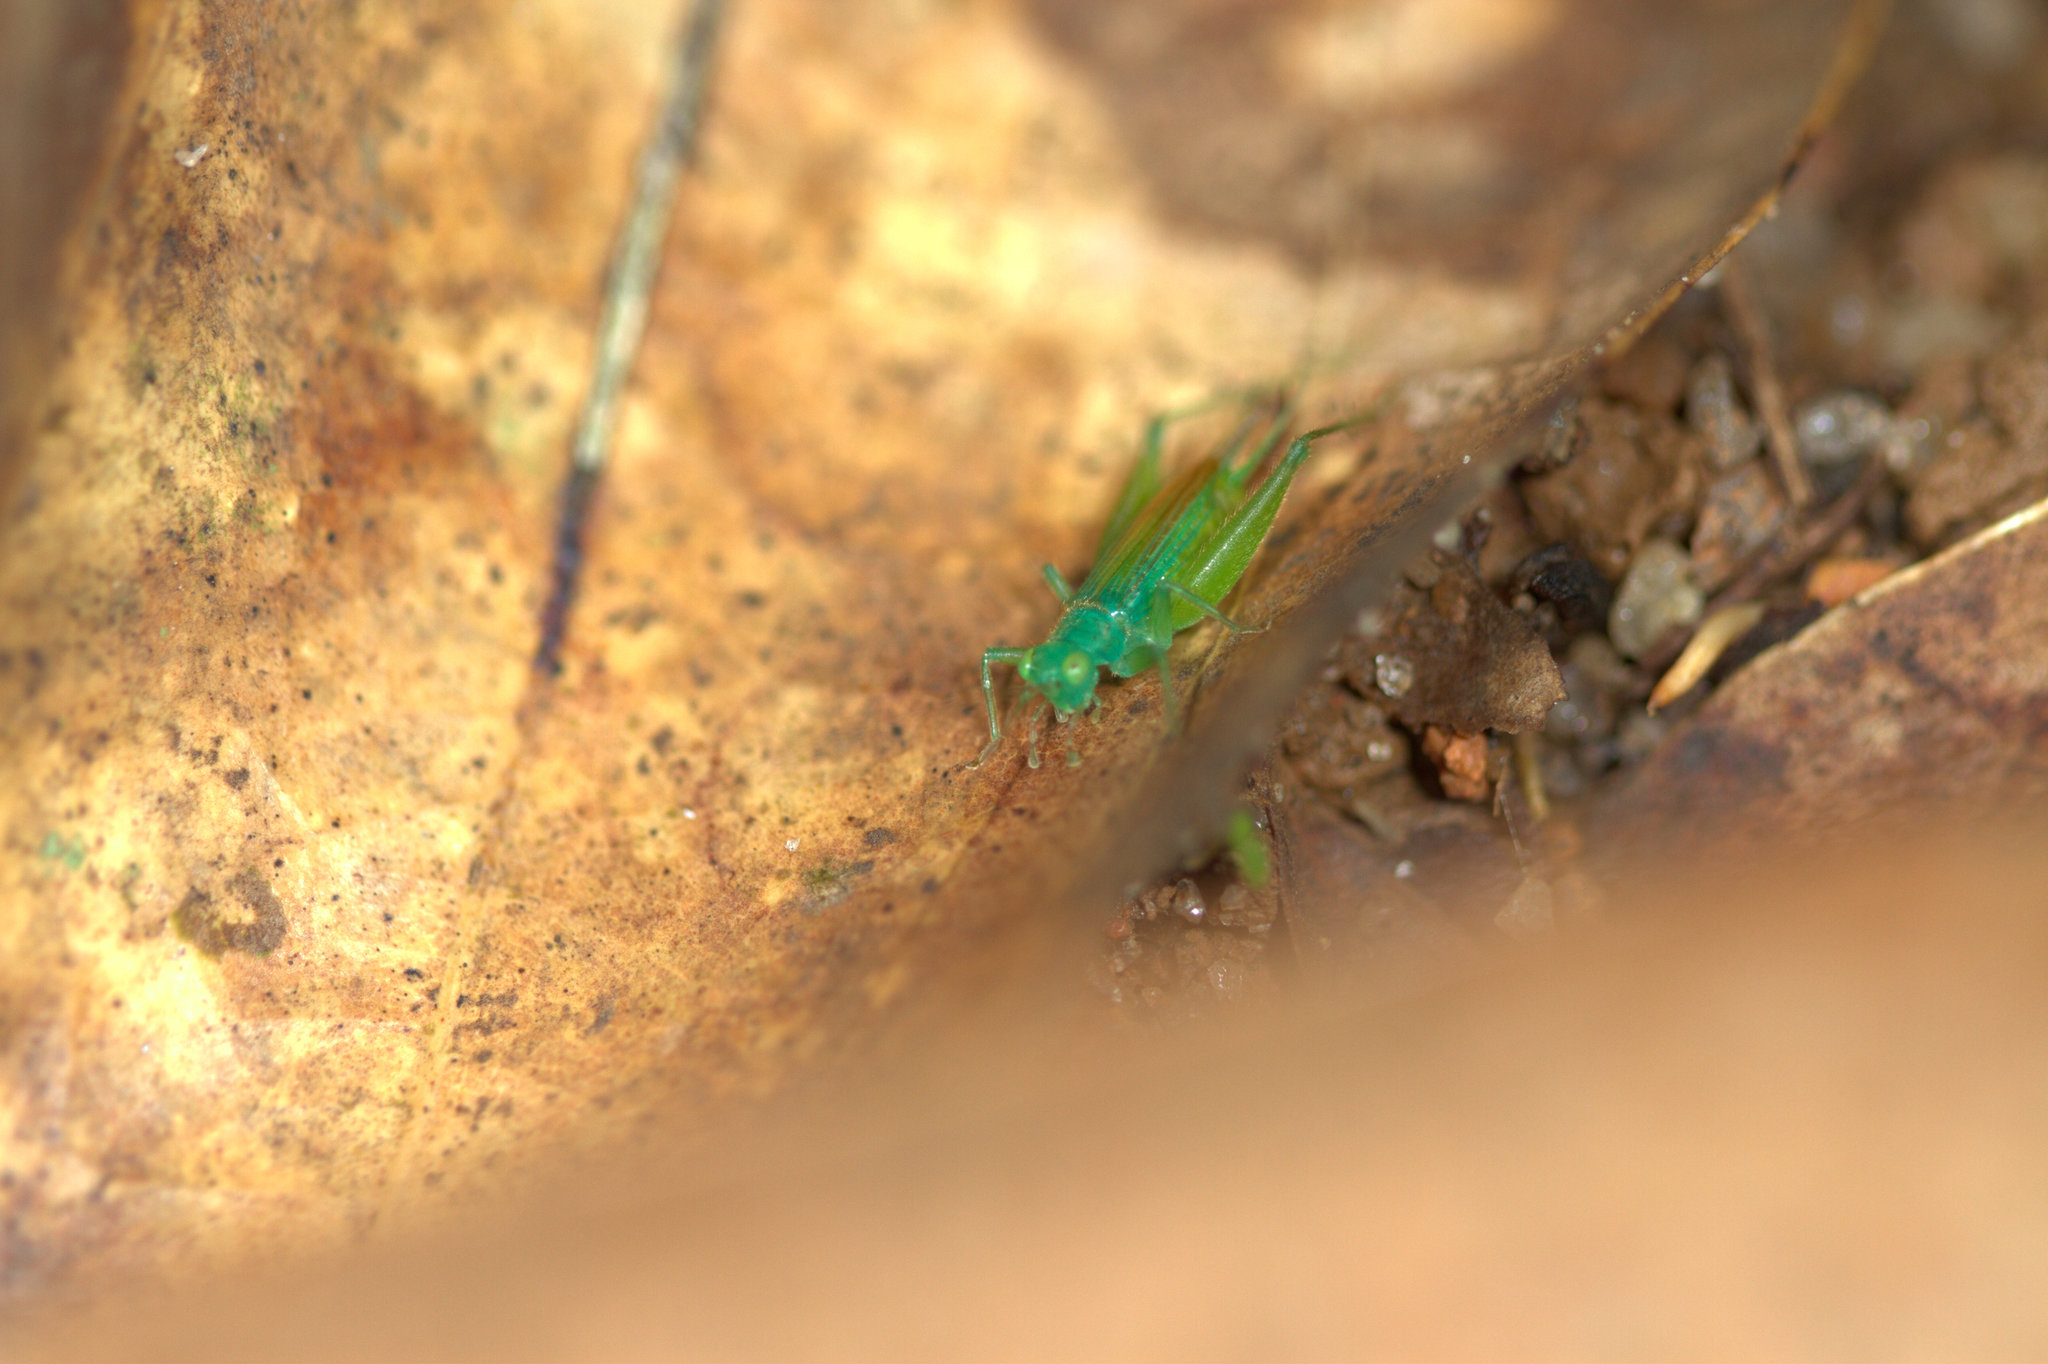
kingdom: Animalia
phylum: Arthropoda
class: Insecta
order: Orthoptera
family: Trigonidiidae
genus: Zarceomorpha
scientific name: Zarceomorpha abdita
